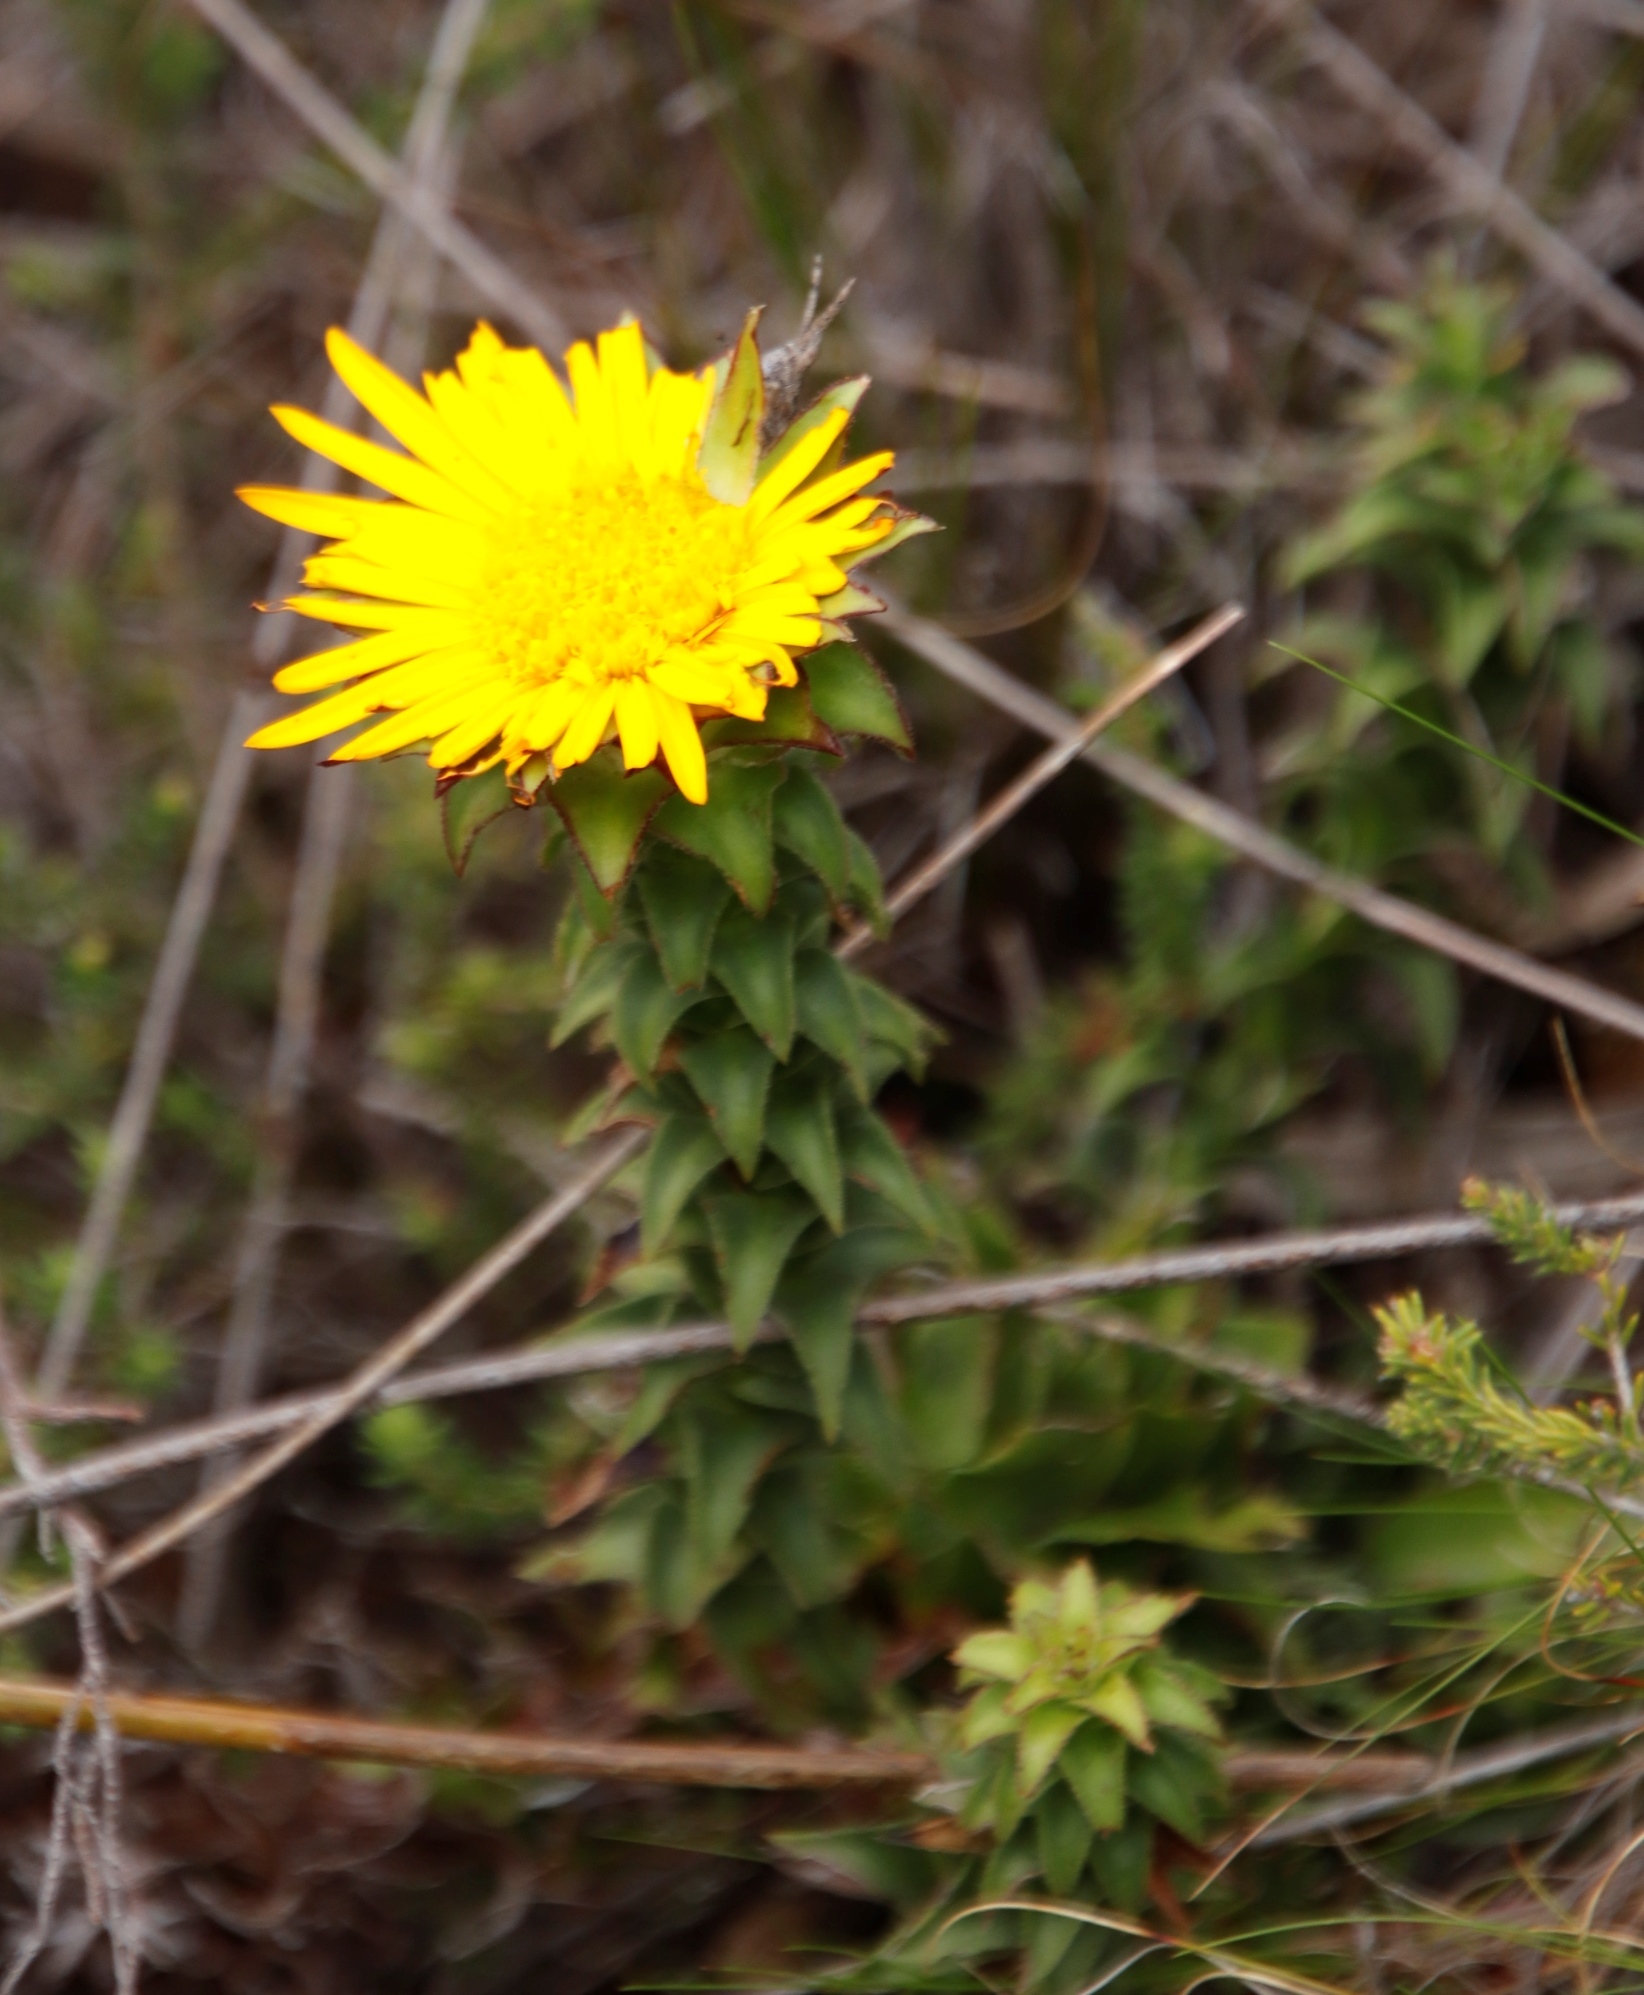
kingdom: Plantae
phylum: Tracheophyta
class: Magnoliopsida
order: Asterales
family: Asteraceae
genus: Oedera
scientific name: Oedera imbricata
